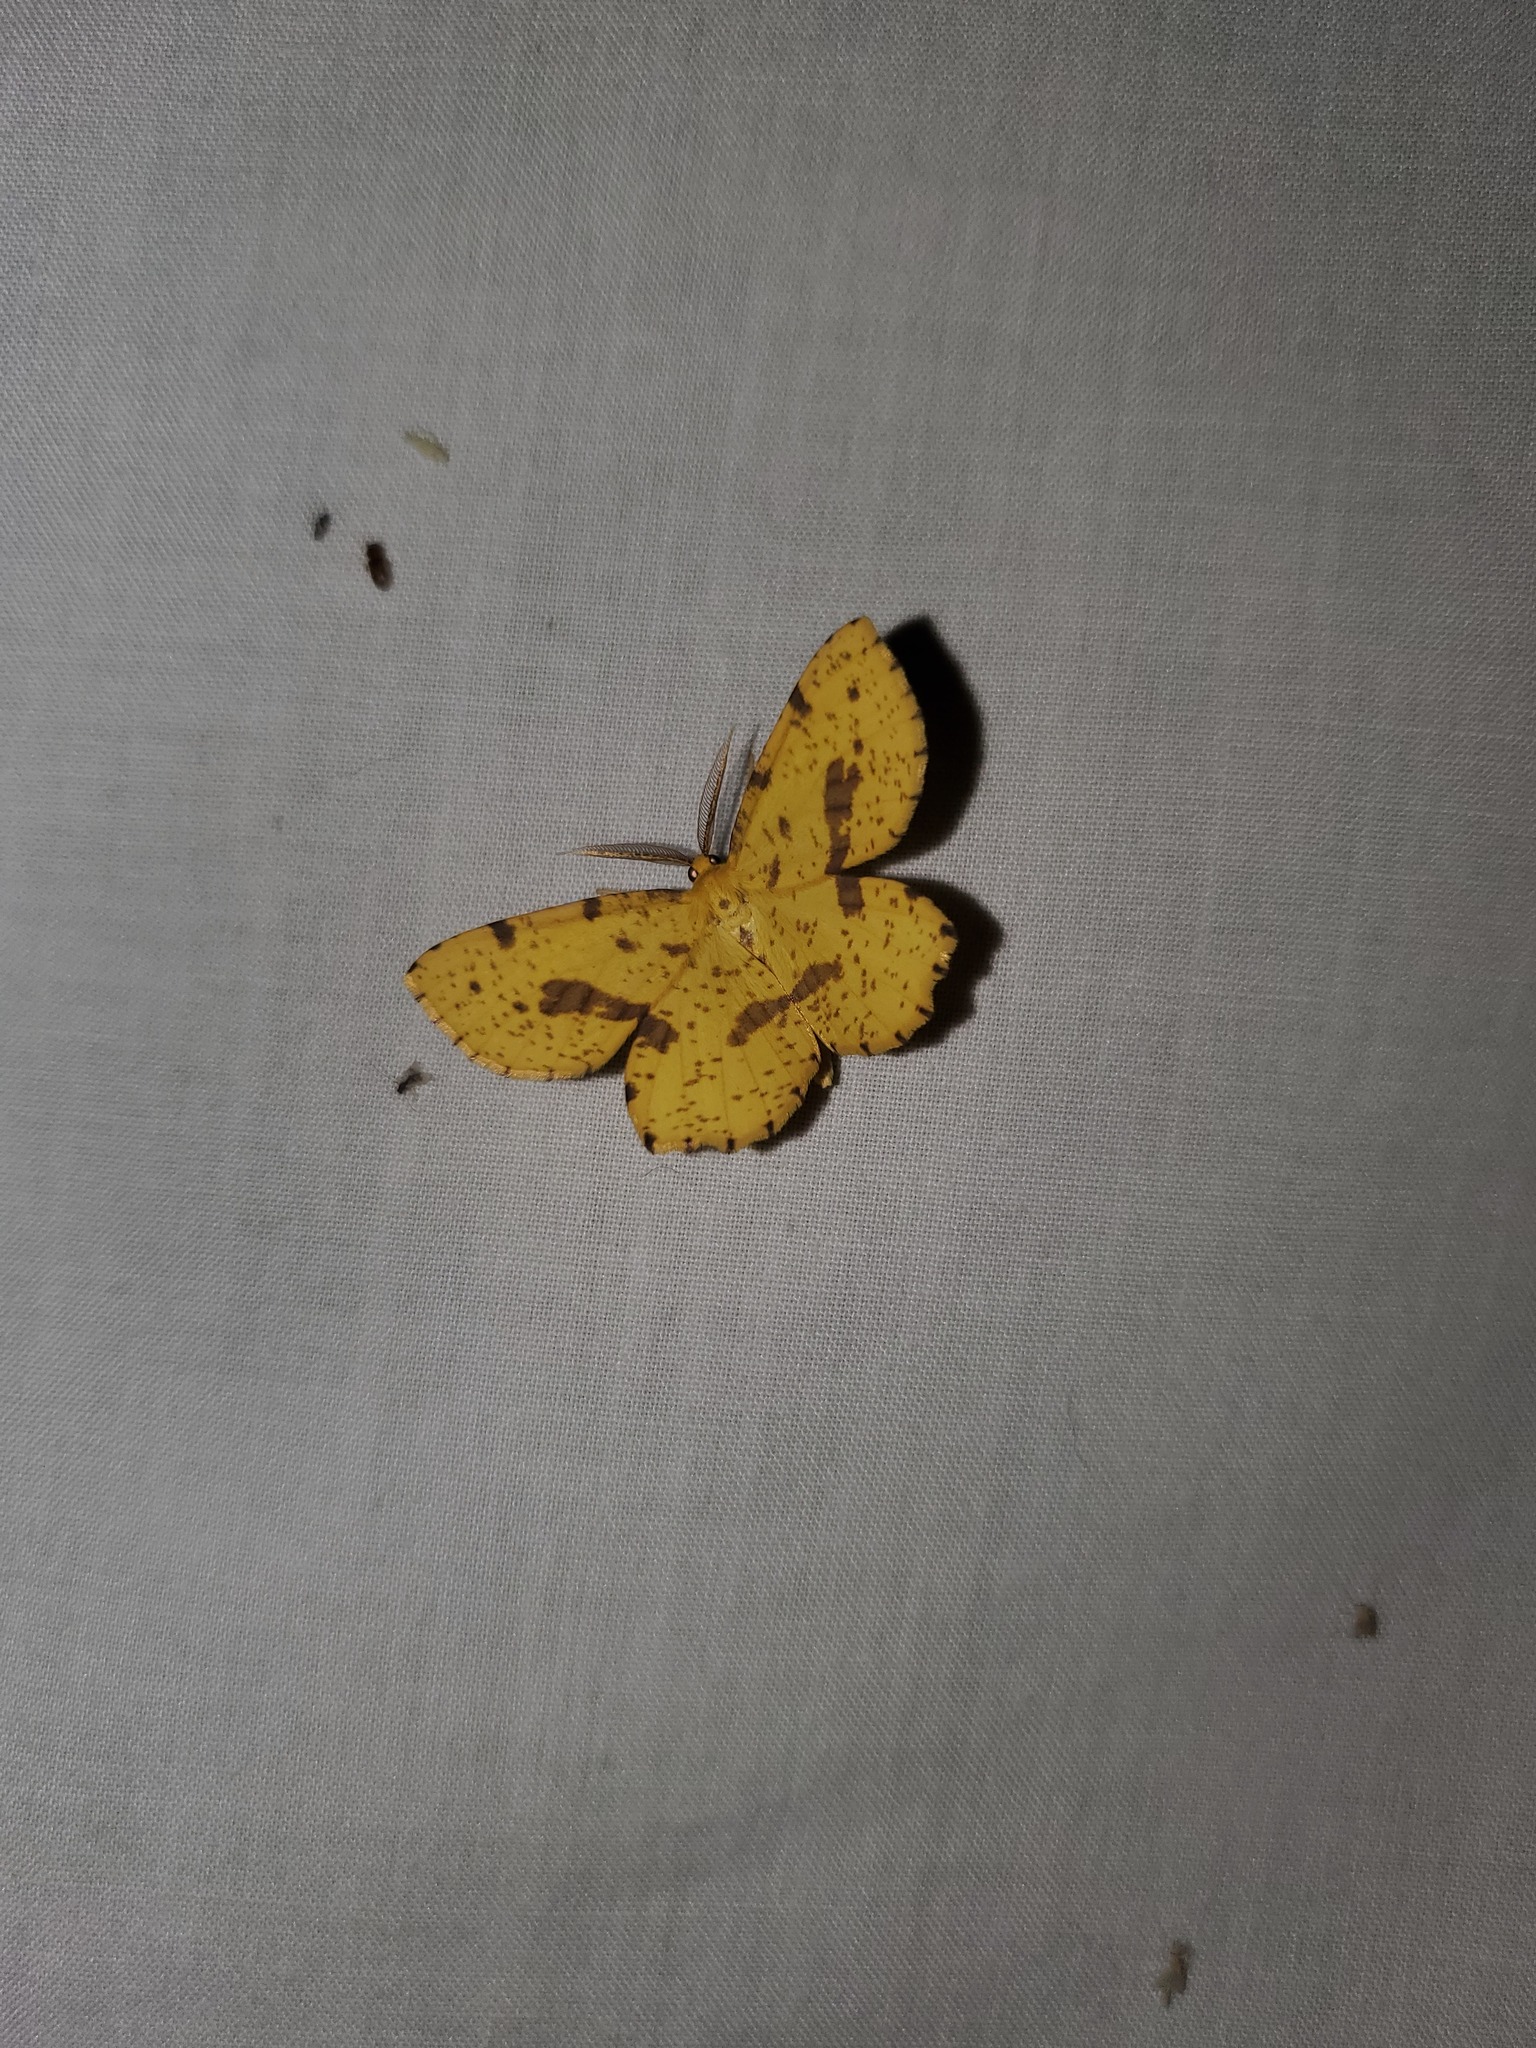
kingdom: Animalia
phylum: Arthropoda
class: Insecta
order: Lepidoptera
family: Geometridae
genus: Xanthotype
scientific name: Xanthotype
